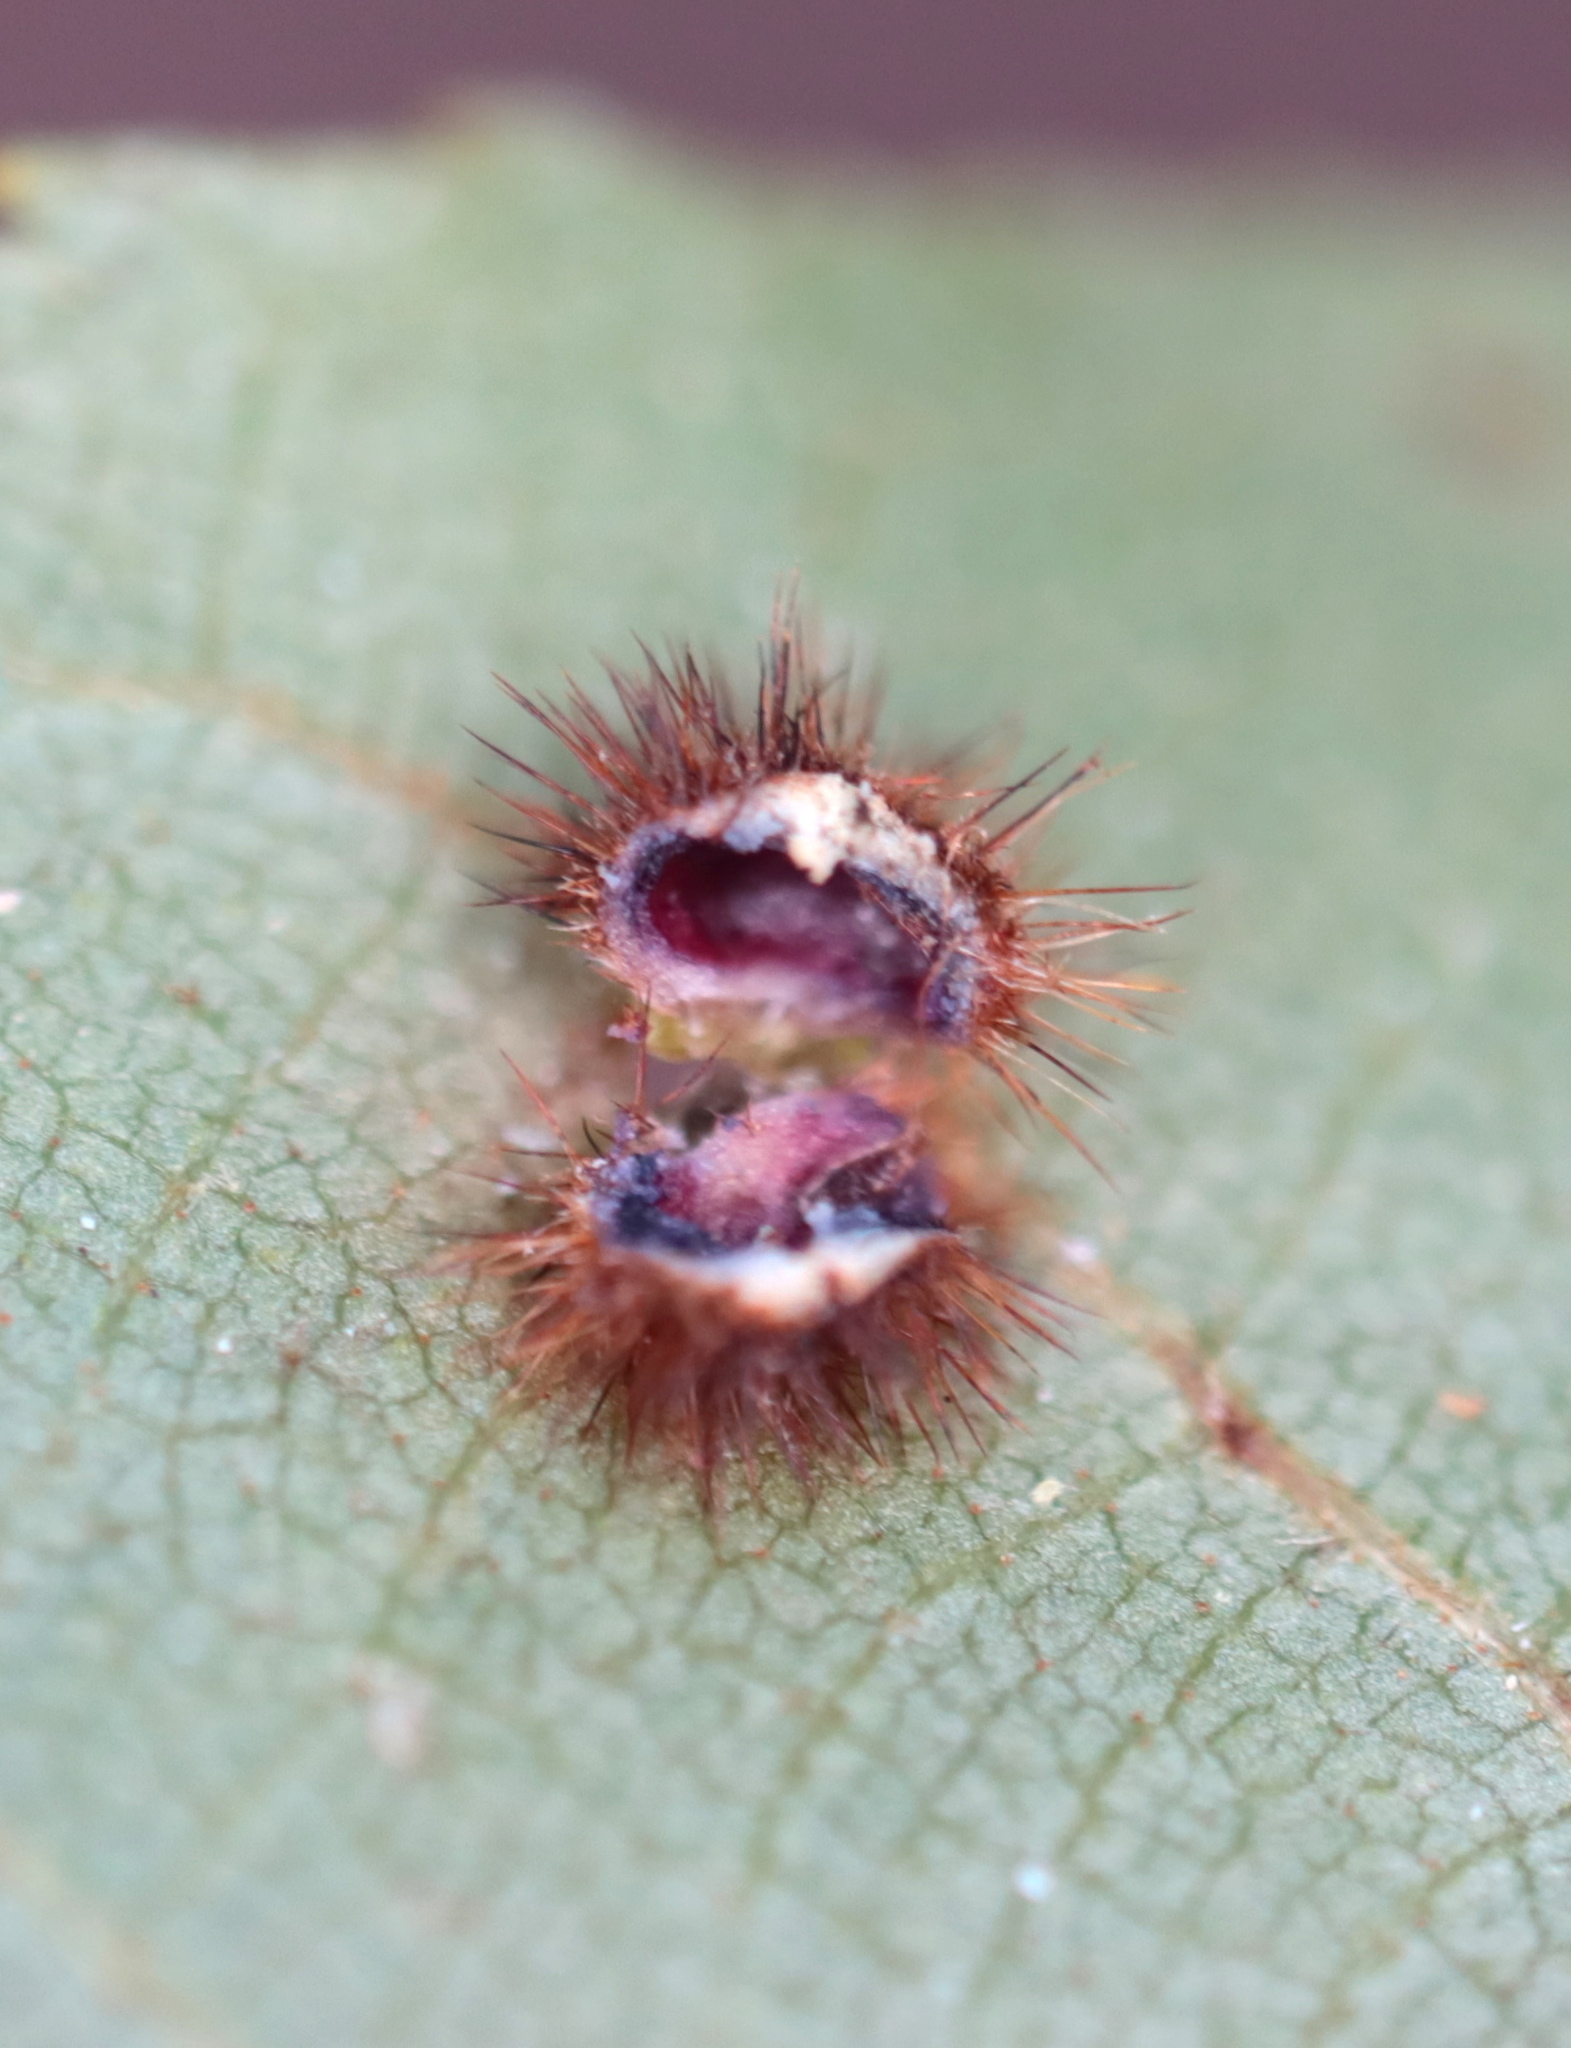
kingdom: Animalia
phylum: Arthropoda
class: Insecta
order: Diptera
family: Cecidomyiidae
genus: Caryomyia
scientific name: Caryomyia purpurea
